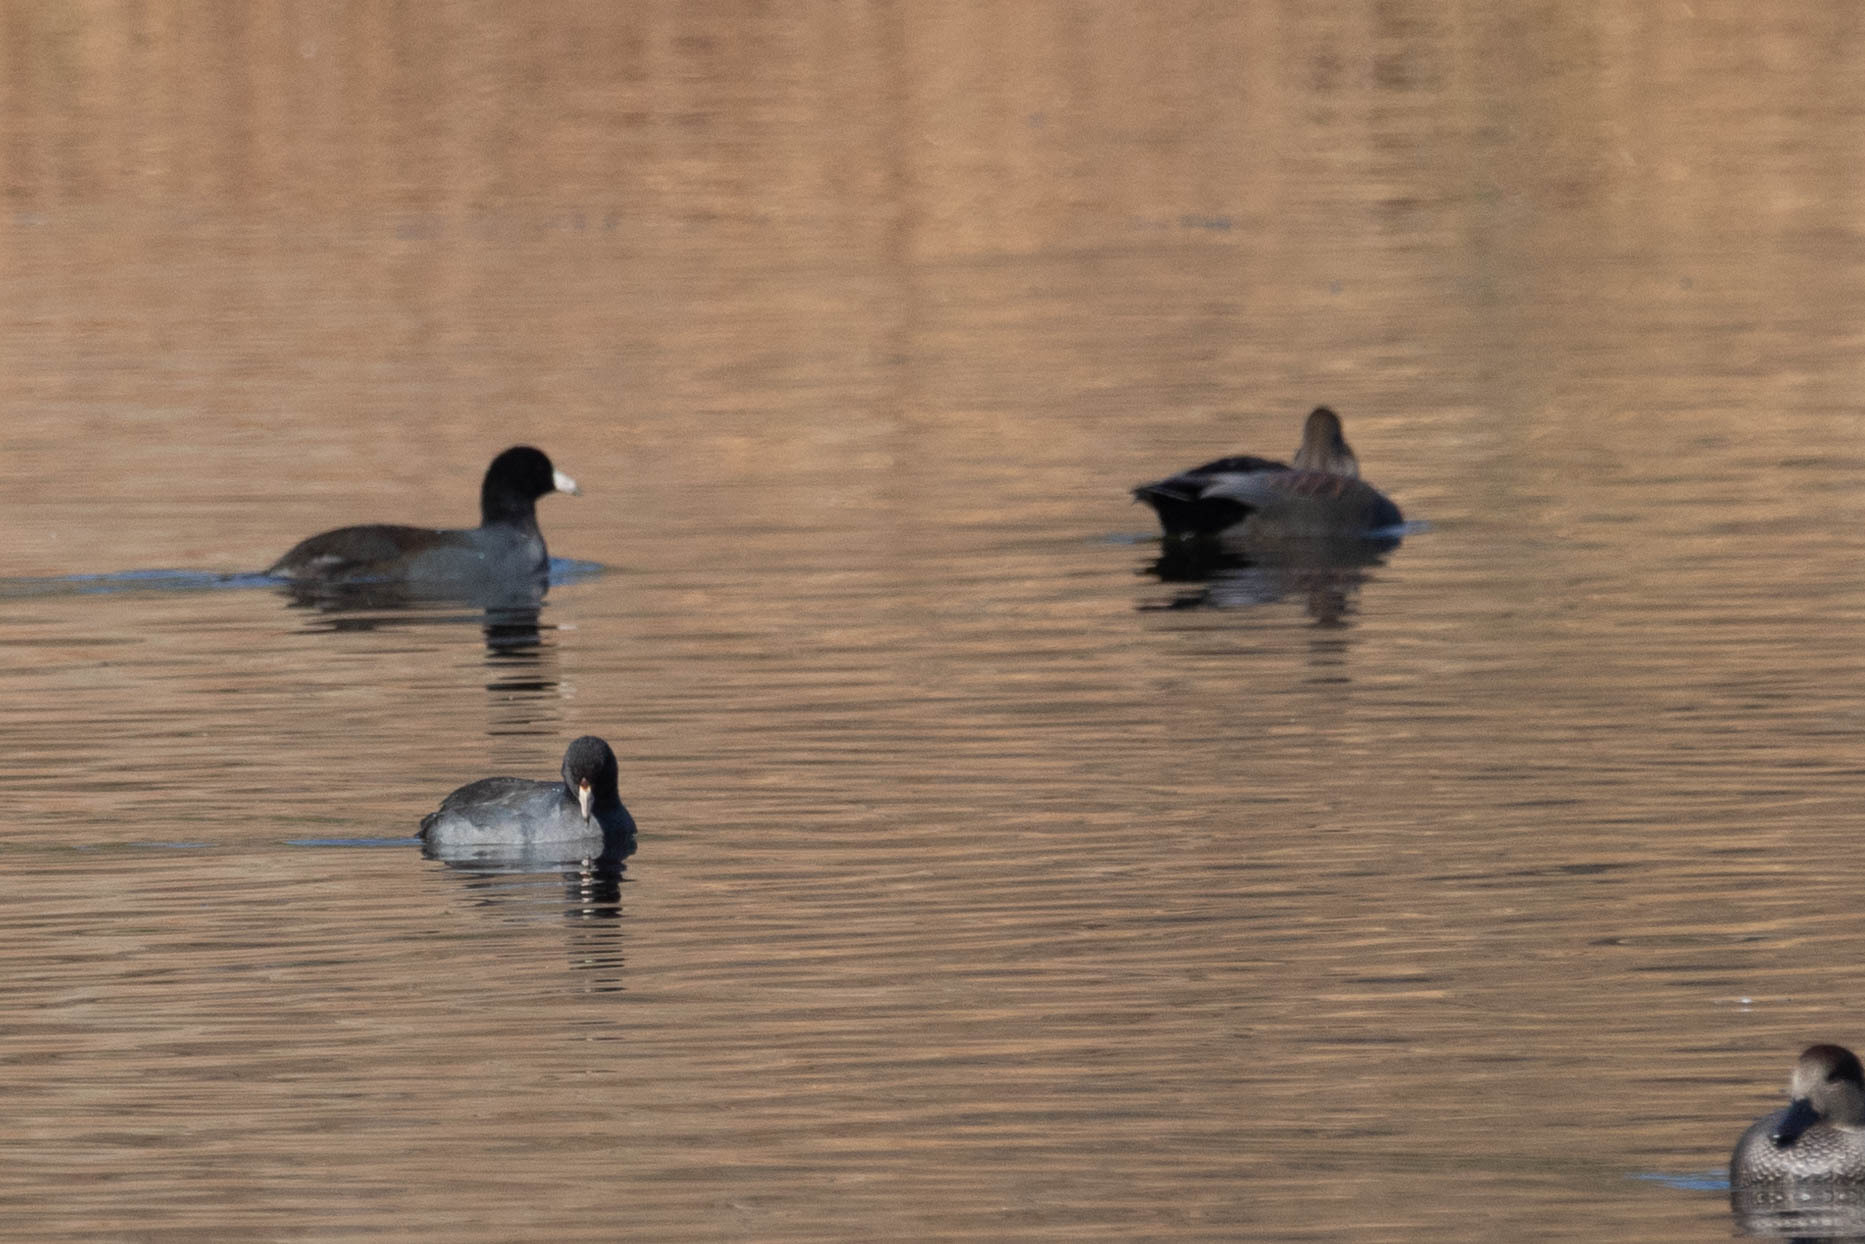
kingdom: Animalia
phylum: Chordata
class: Aves
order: Gruiformes
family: Rallidae
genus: Fulica
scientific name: Fulica americana
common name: American coot
